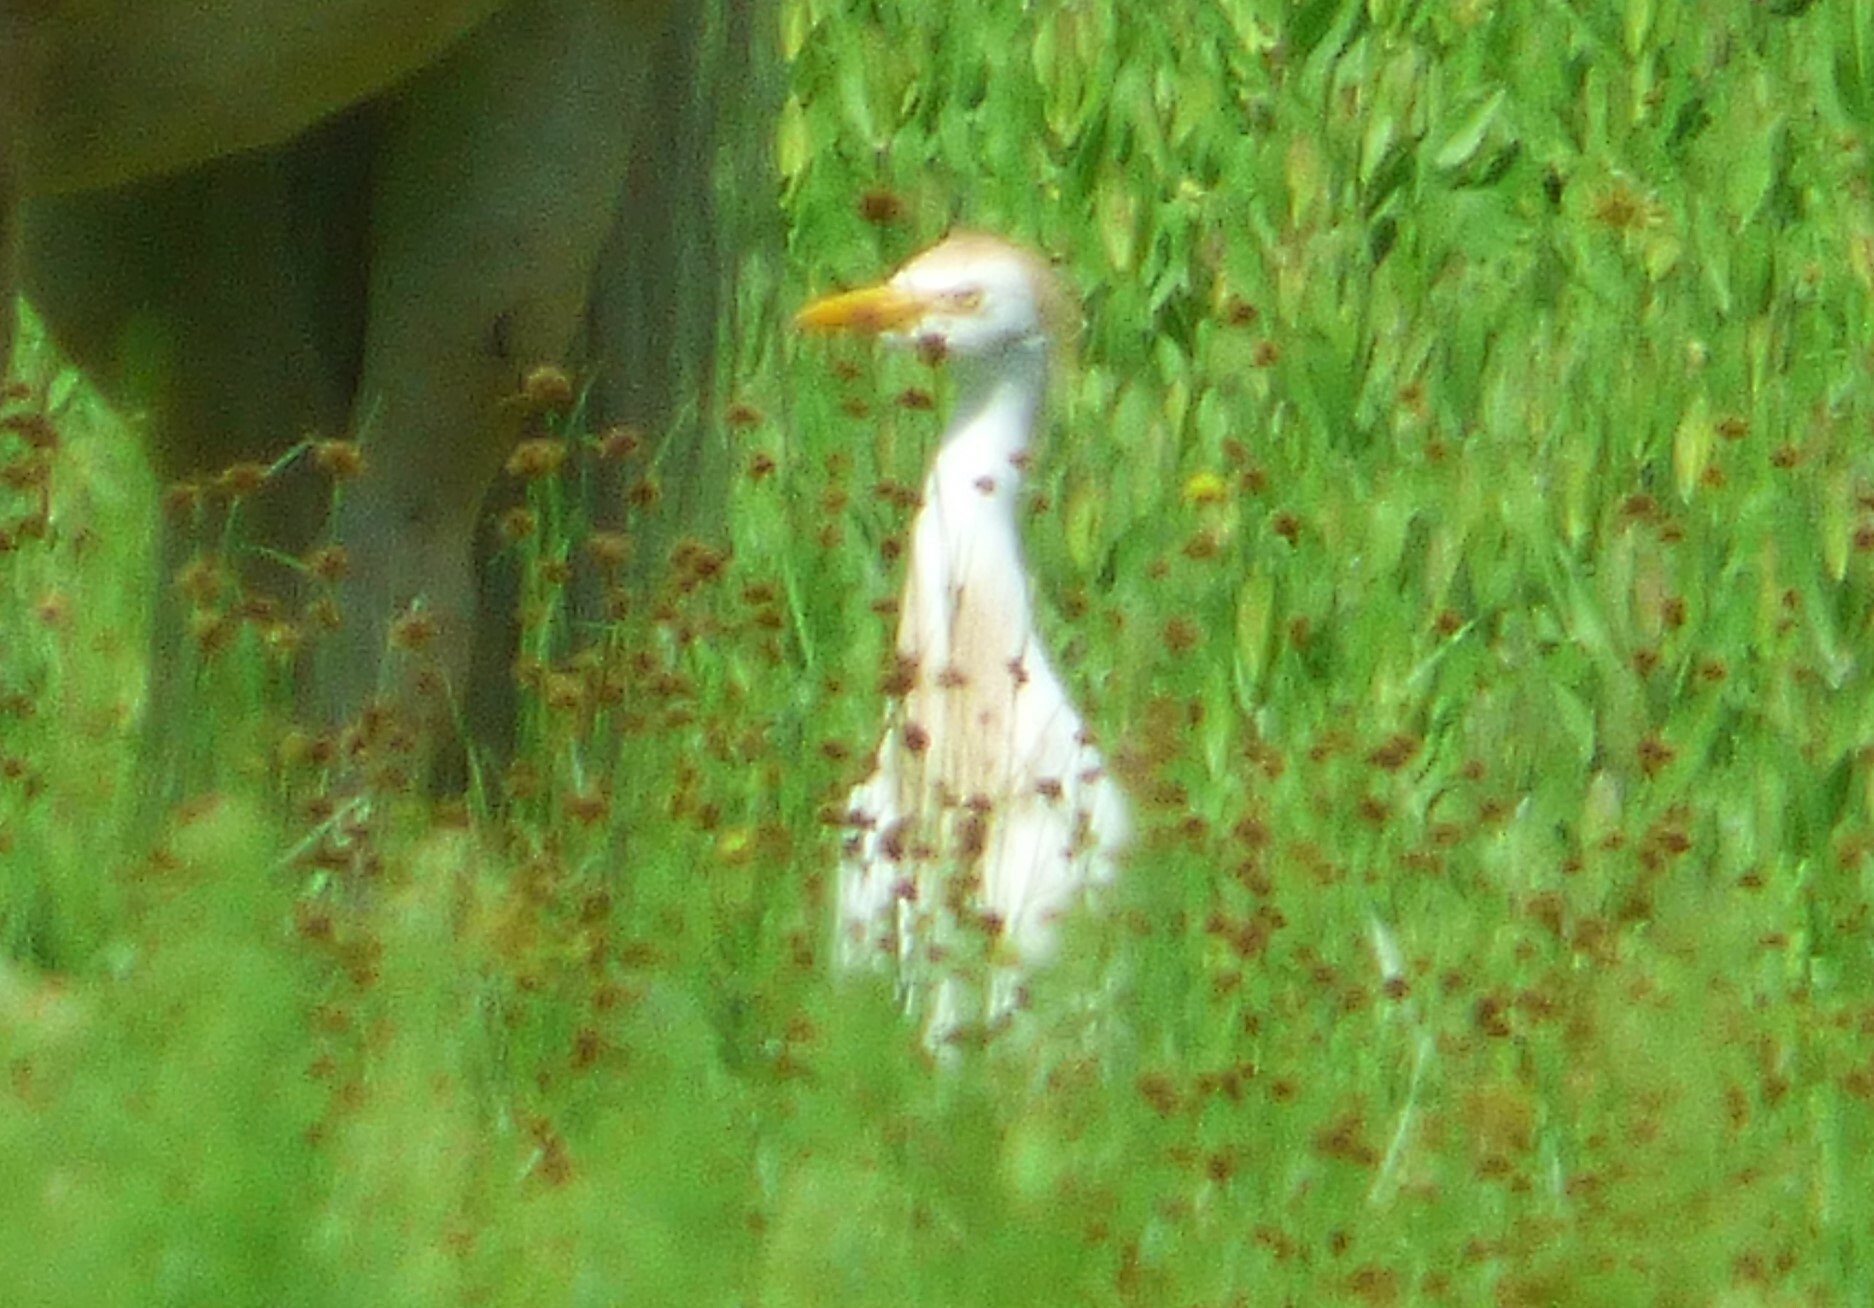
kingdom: Animalia
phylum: Chordata
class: Aves
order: Pelecaniformes
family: Ardeidae
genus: Bubulcus
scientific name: Bubulcus ibis
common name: Cattle egret
